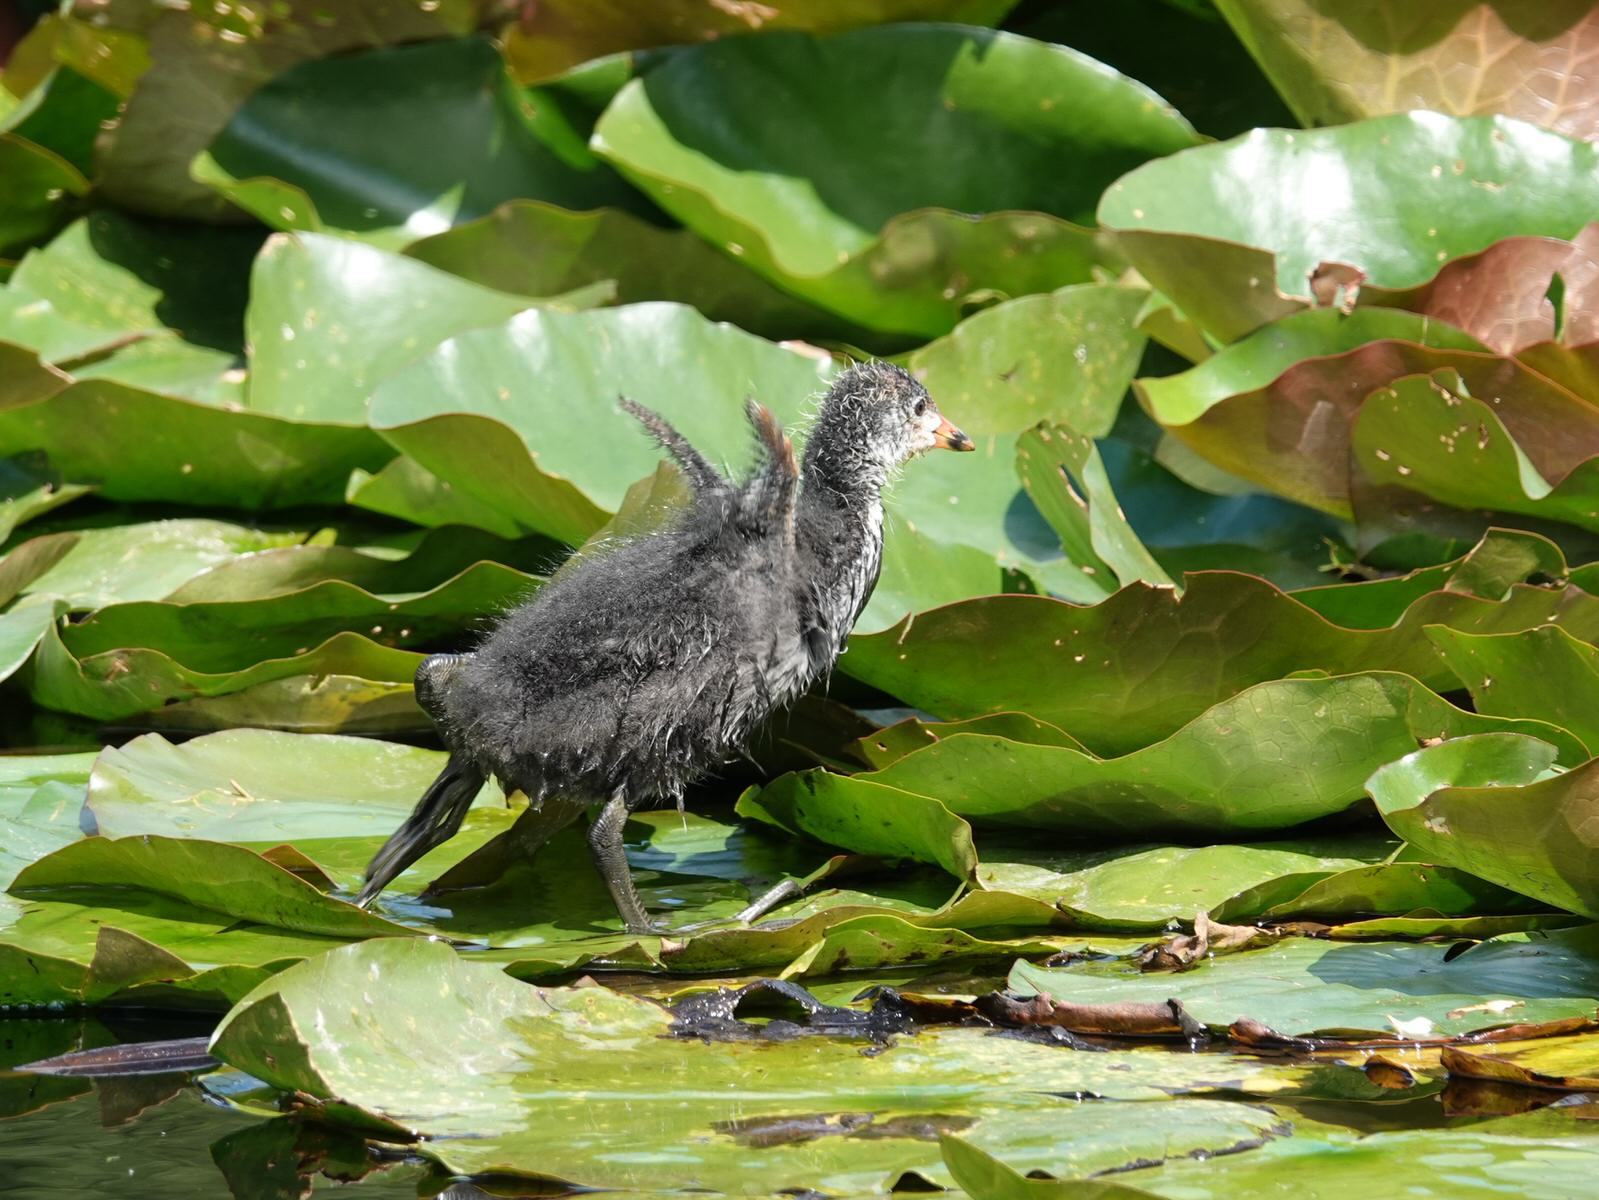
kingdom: Animalia
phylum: Chordata
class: Aves
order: Gruiformes
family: Rallidae
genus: Fulica
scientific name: Fulica atra
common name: Eurasian coot
